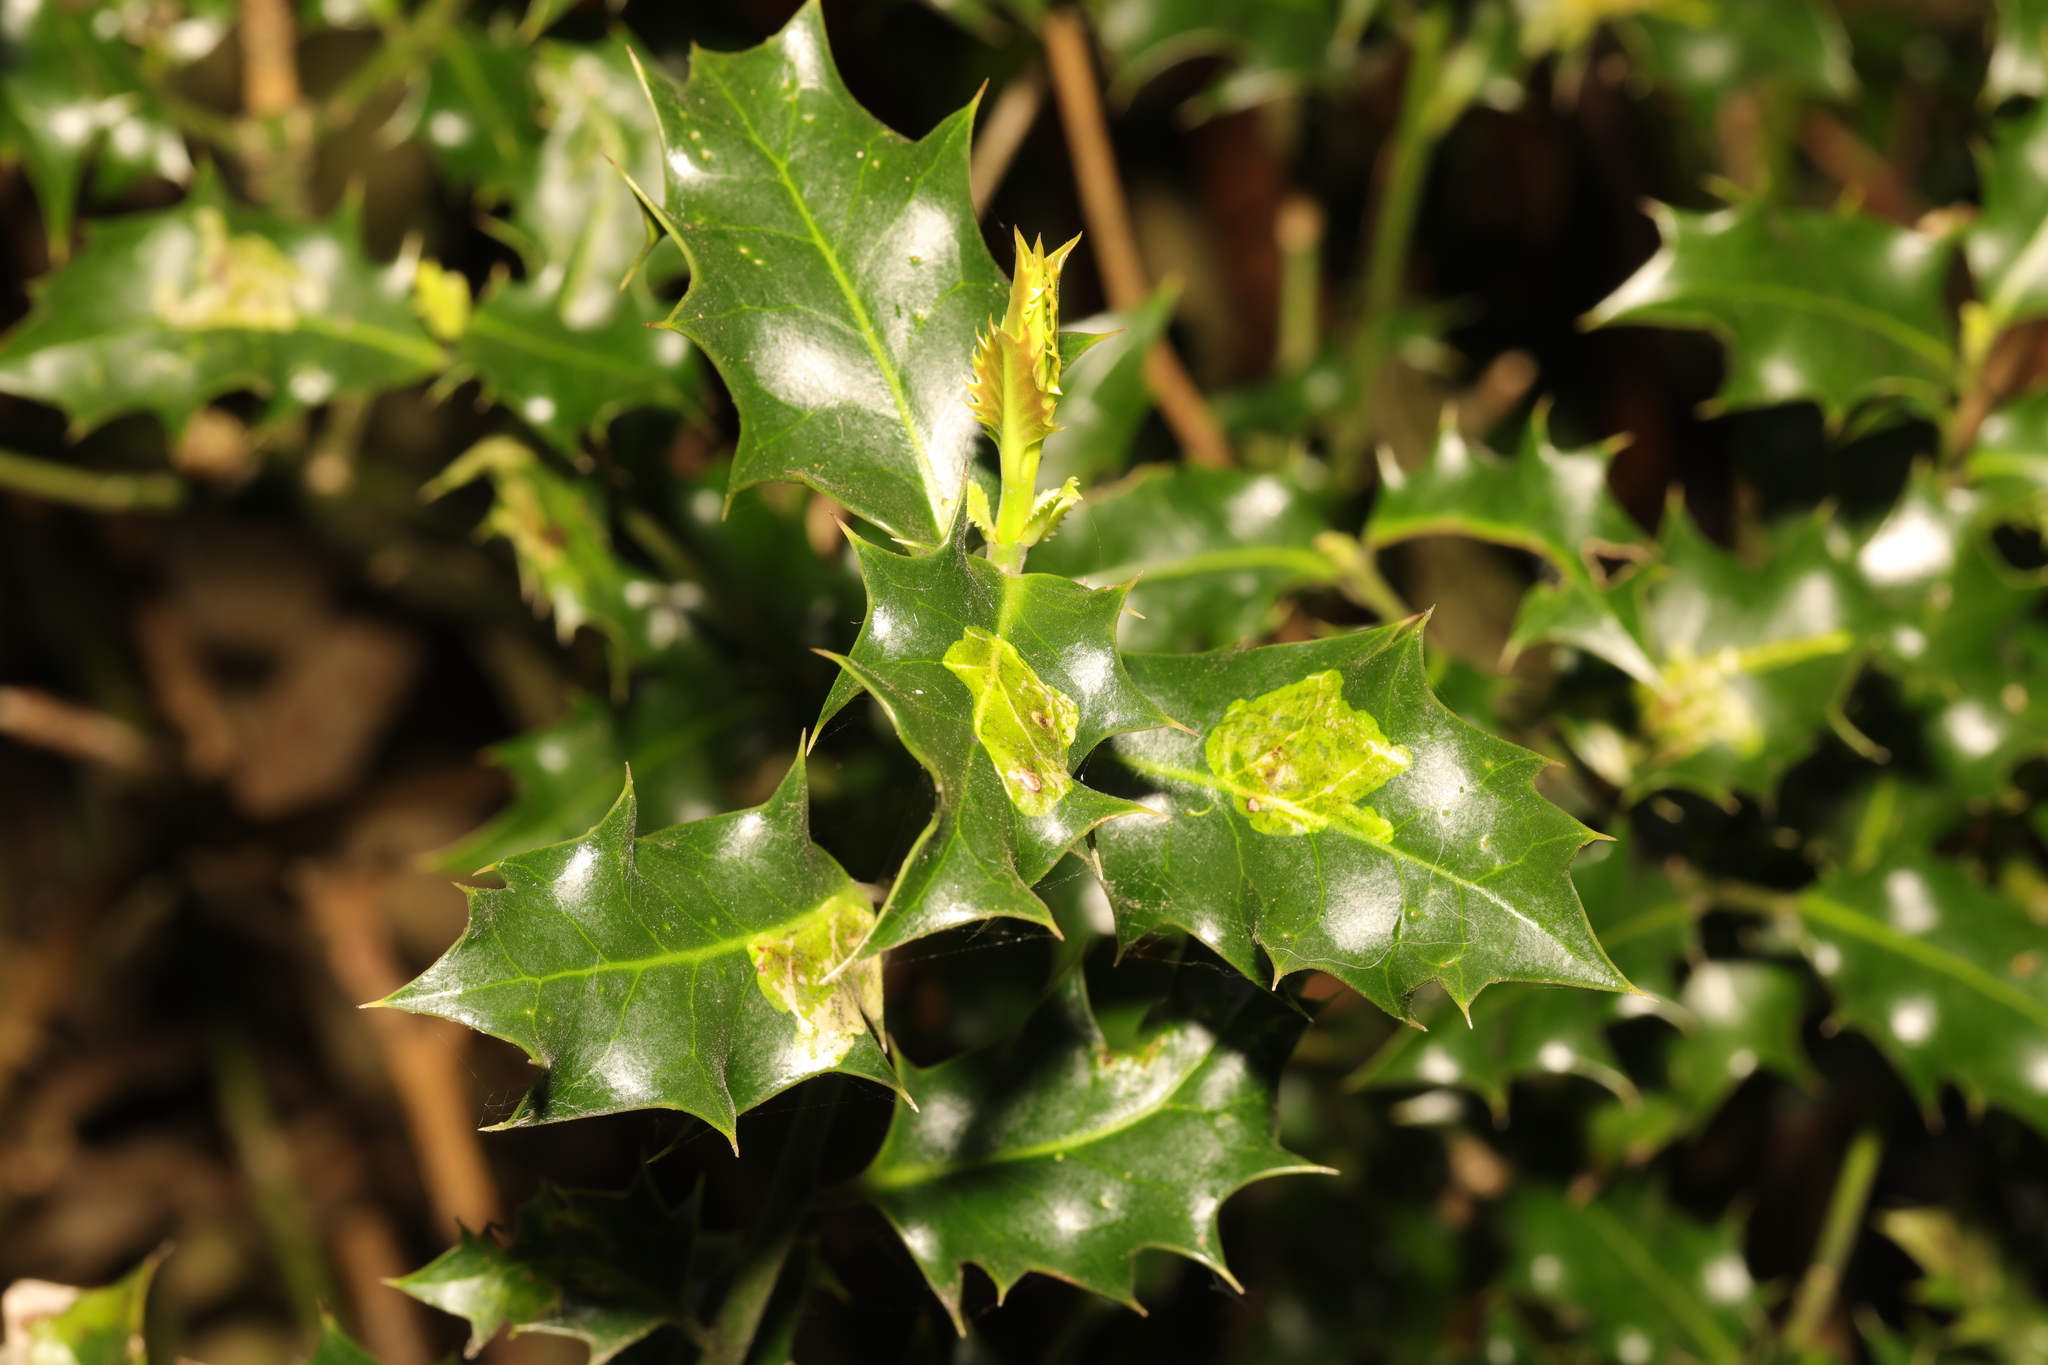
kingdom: Plantae
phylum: Tracheophyta
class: Magnoliopsida
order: Aquifoliales
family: Aquifoliaceae
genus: Ilex
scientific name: Ilex aquifolium
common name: English holly
